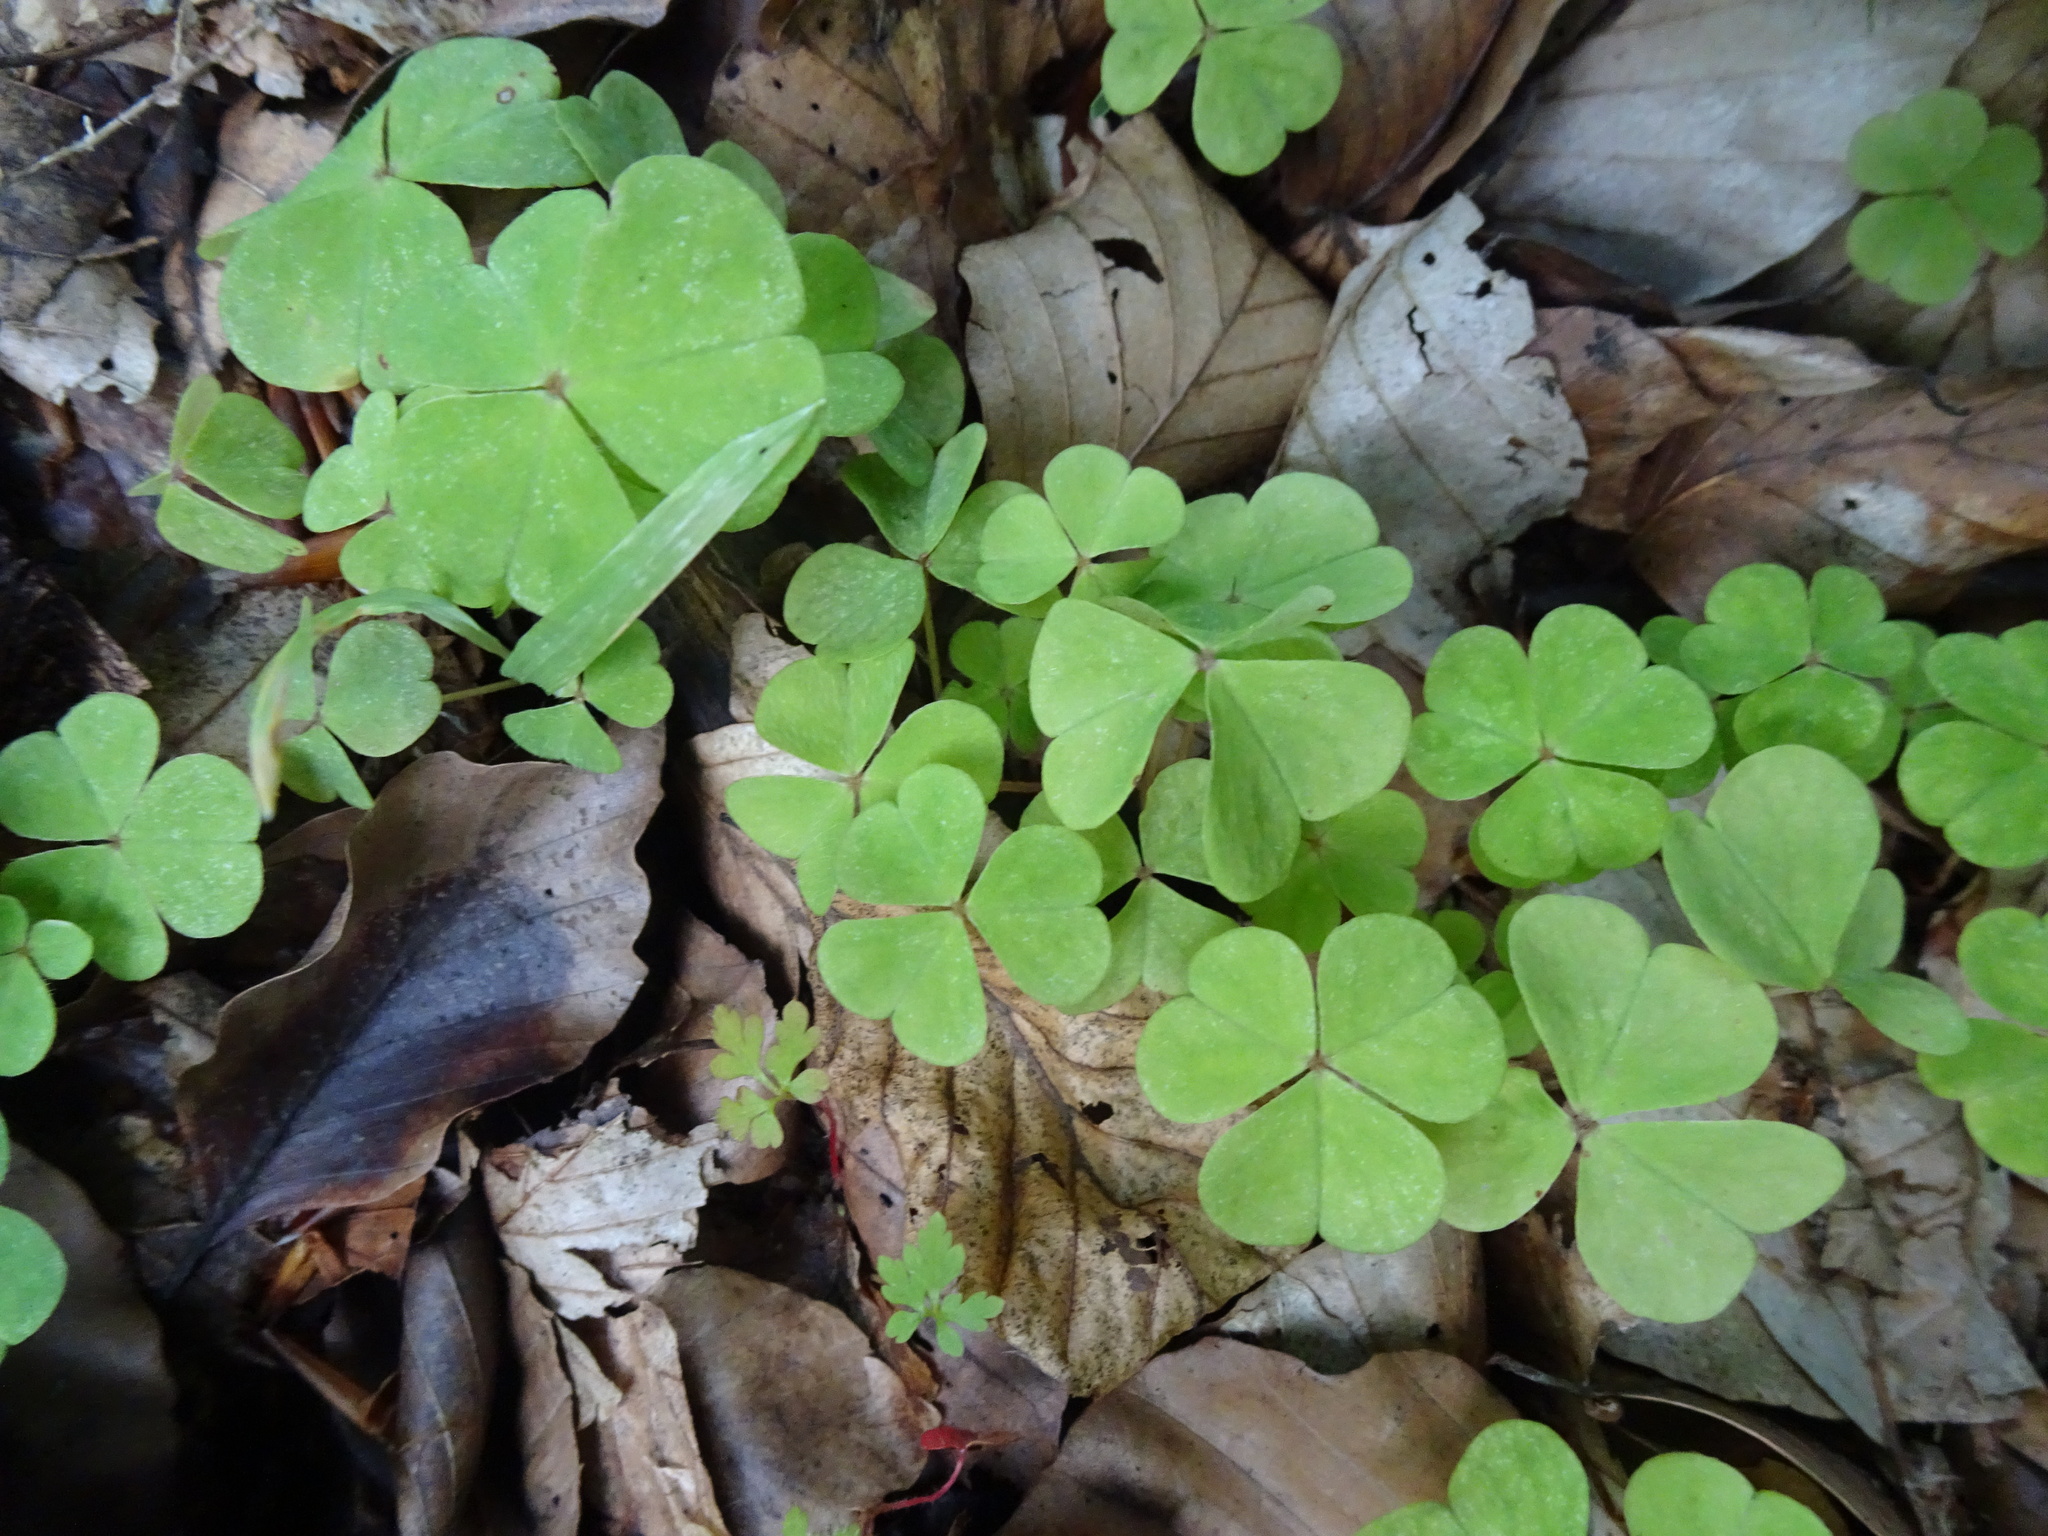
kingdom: Plantae
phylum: Tracheophyta
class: Magnoliopsida
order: Oxalidales
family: Oxalidaceae
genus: Oxalis
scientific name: Oxalis acetosella
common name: Wood-sorrel
